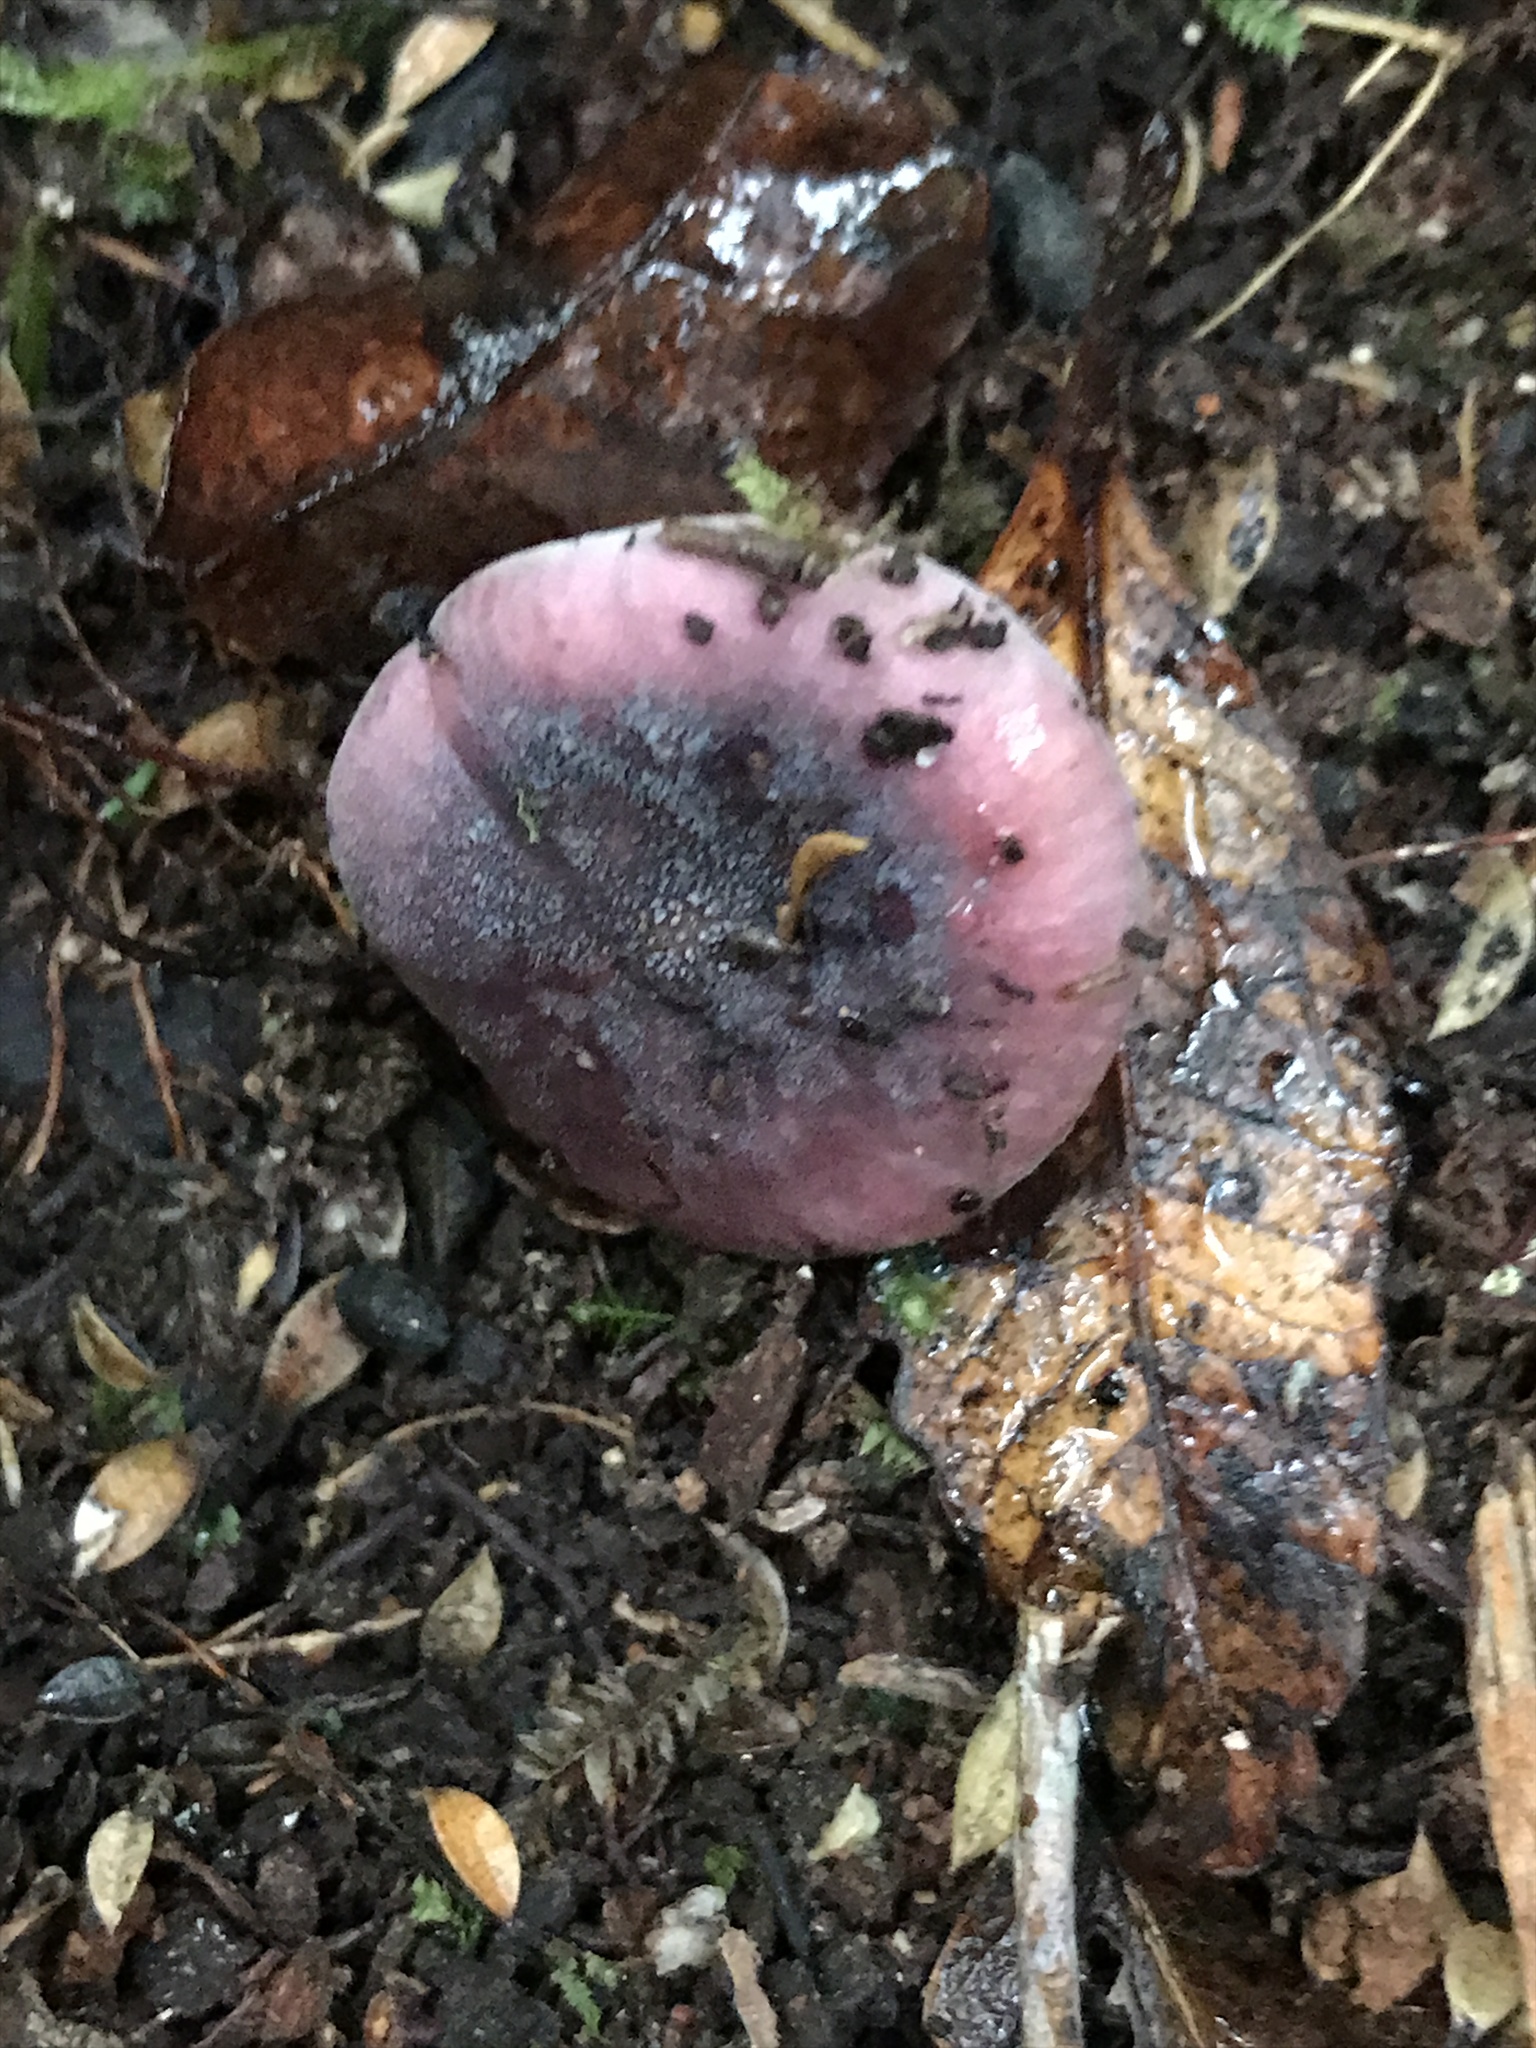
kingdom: Fungi
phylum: Basidiomycota
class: Agaricomycetes
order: Russulales
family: Russulaceae
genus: Russula
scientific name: Russula roseopileata
